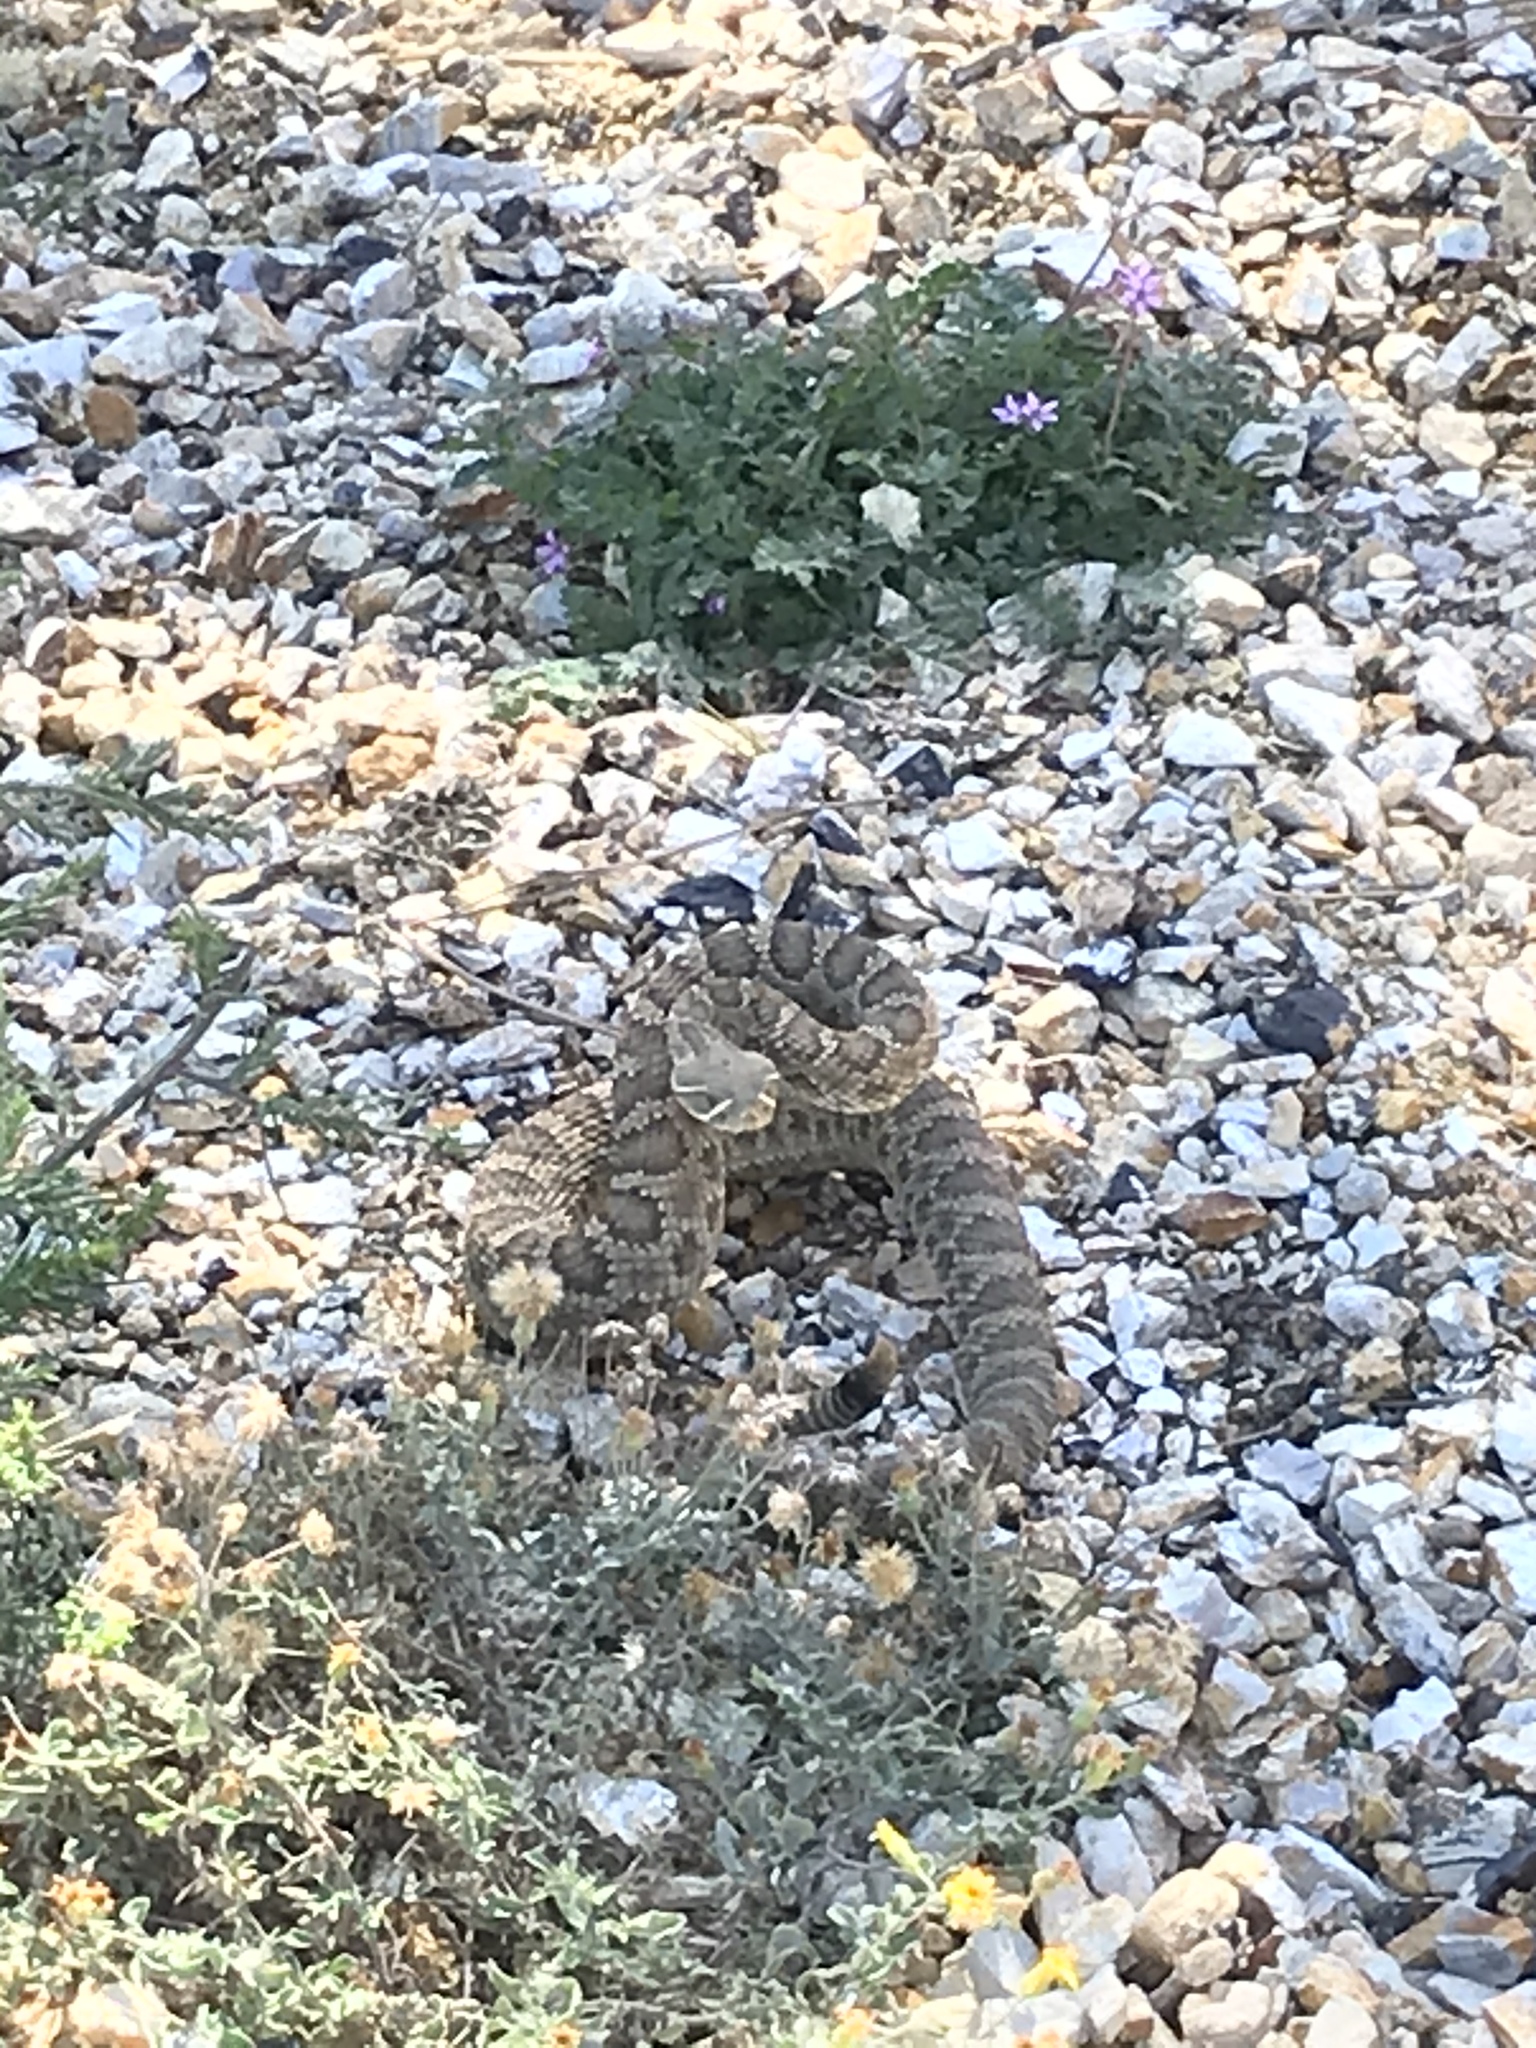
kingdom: Animalia
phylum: Chordata
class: Squamata
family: Viperidae
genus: Crotalus
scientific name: Crotalus viridis
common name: Prairie rattlesnake
